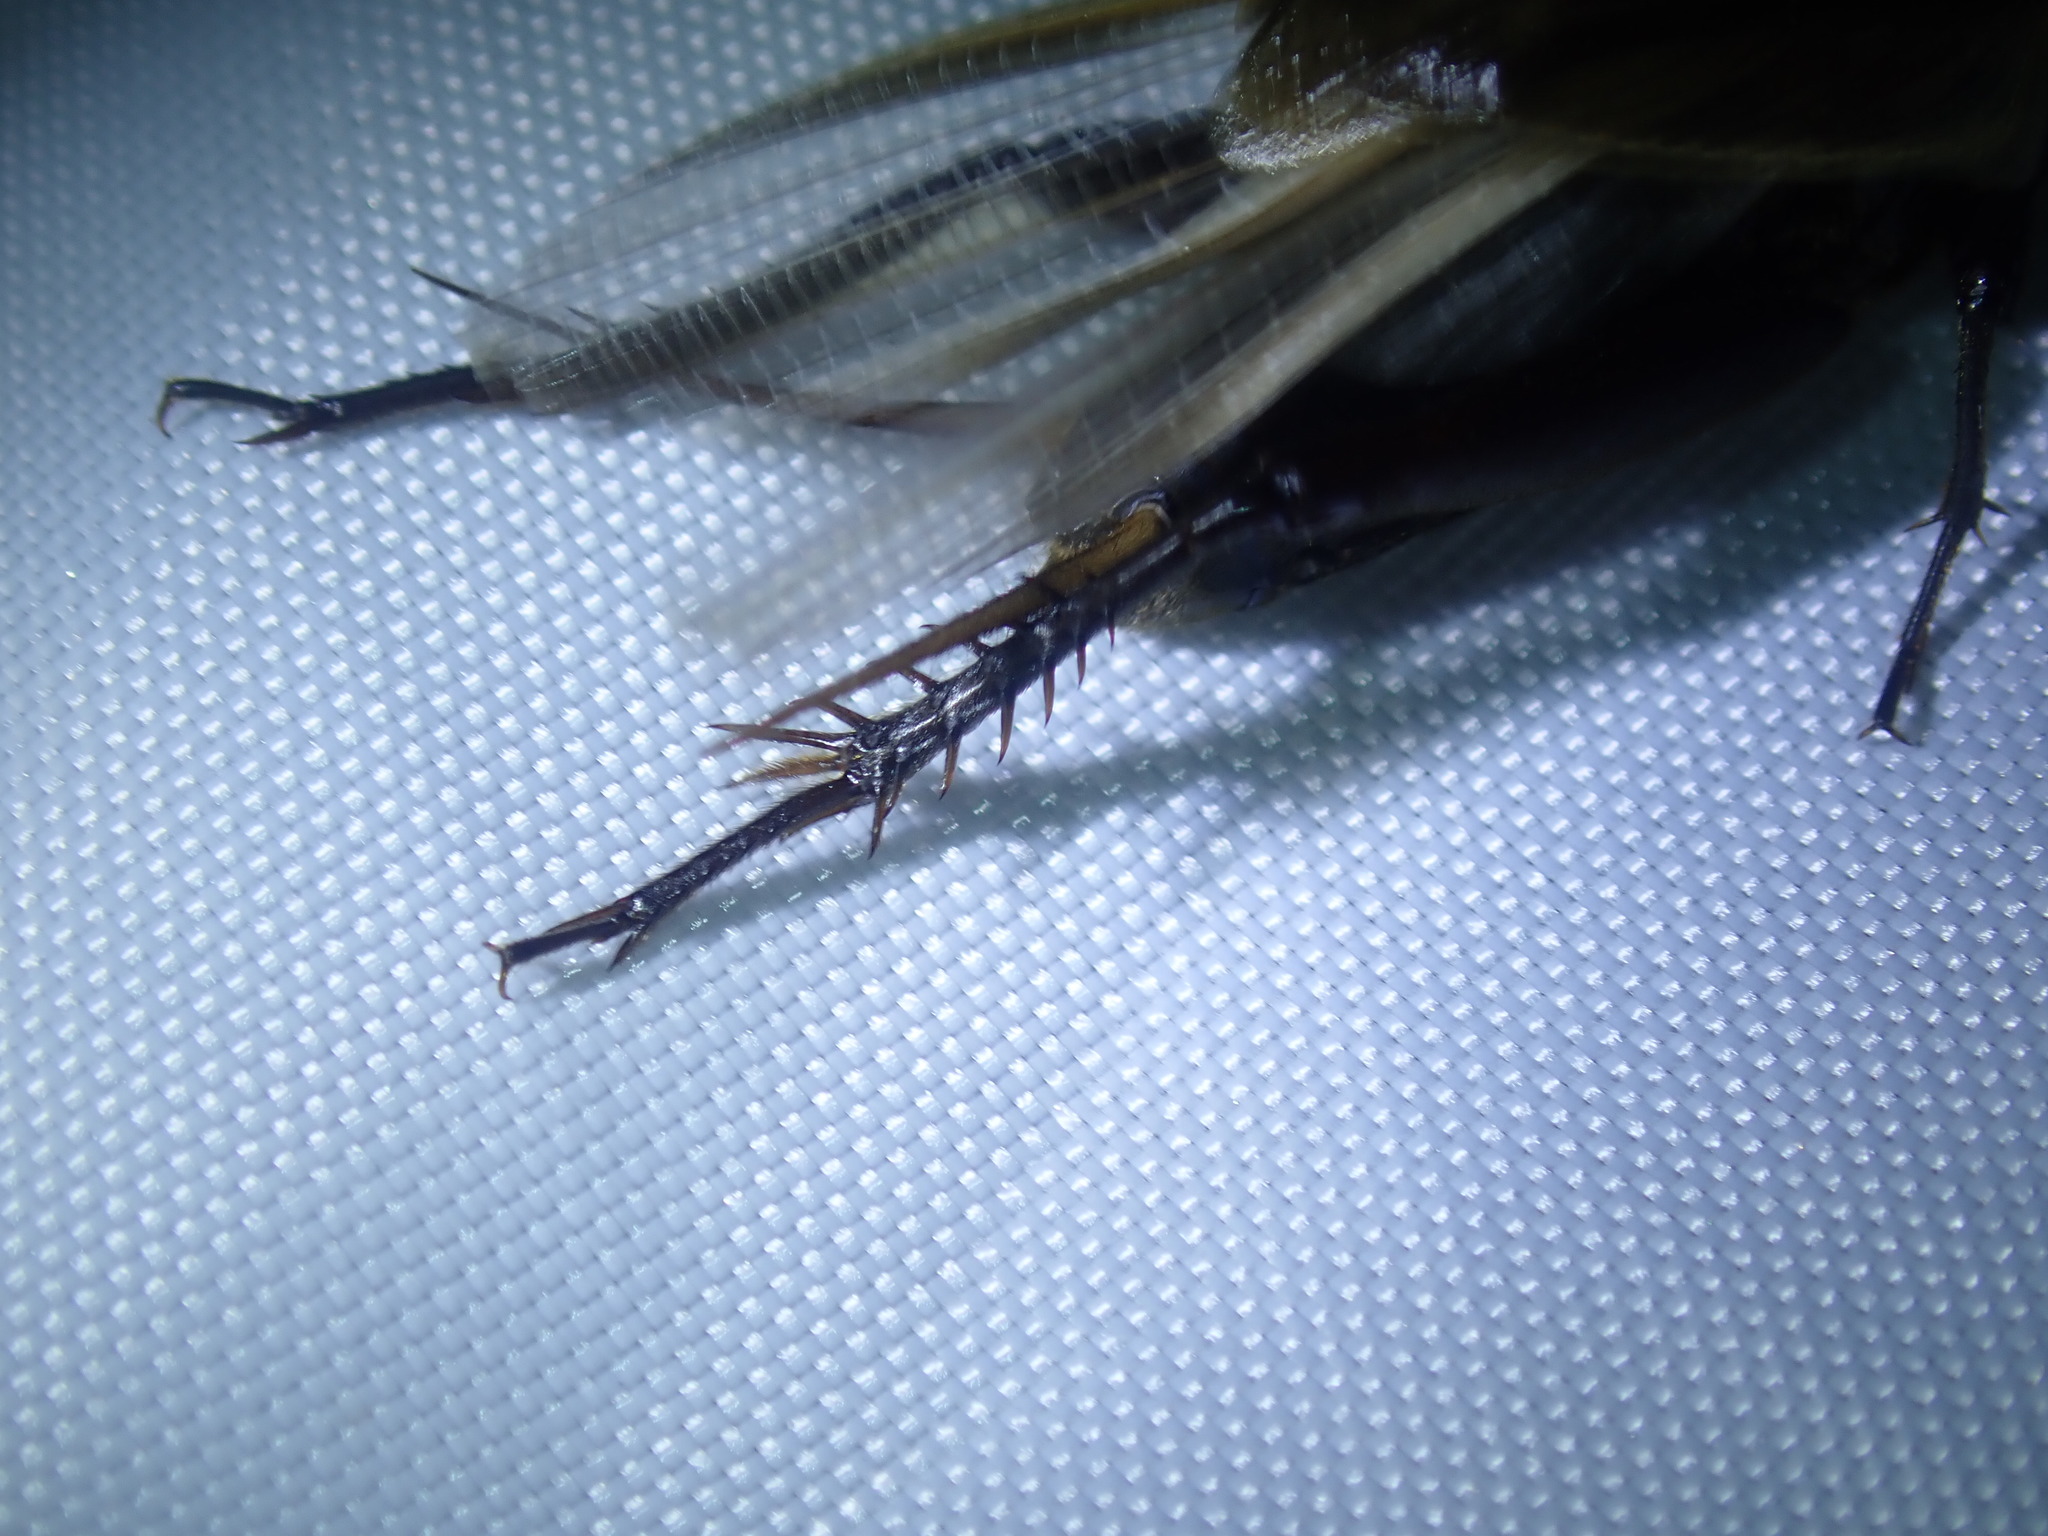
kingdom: Animalia
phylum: Arthropoda
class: Insecta
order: Orthoptera
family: Gryllidae
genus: Teleogryllus
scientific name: Teleogryllus commodus
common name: Black field cricket
